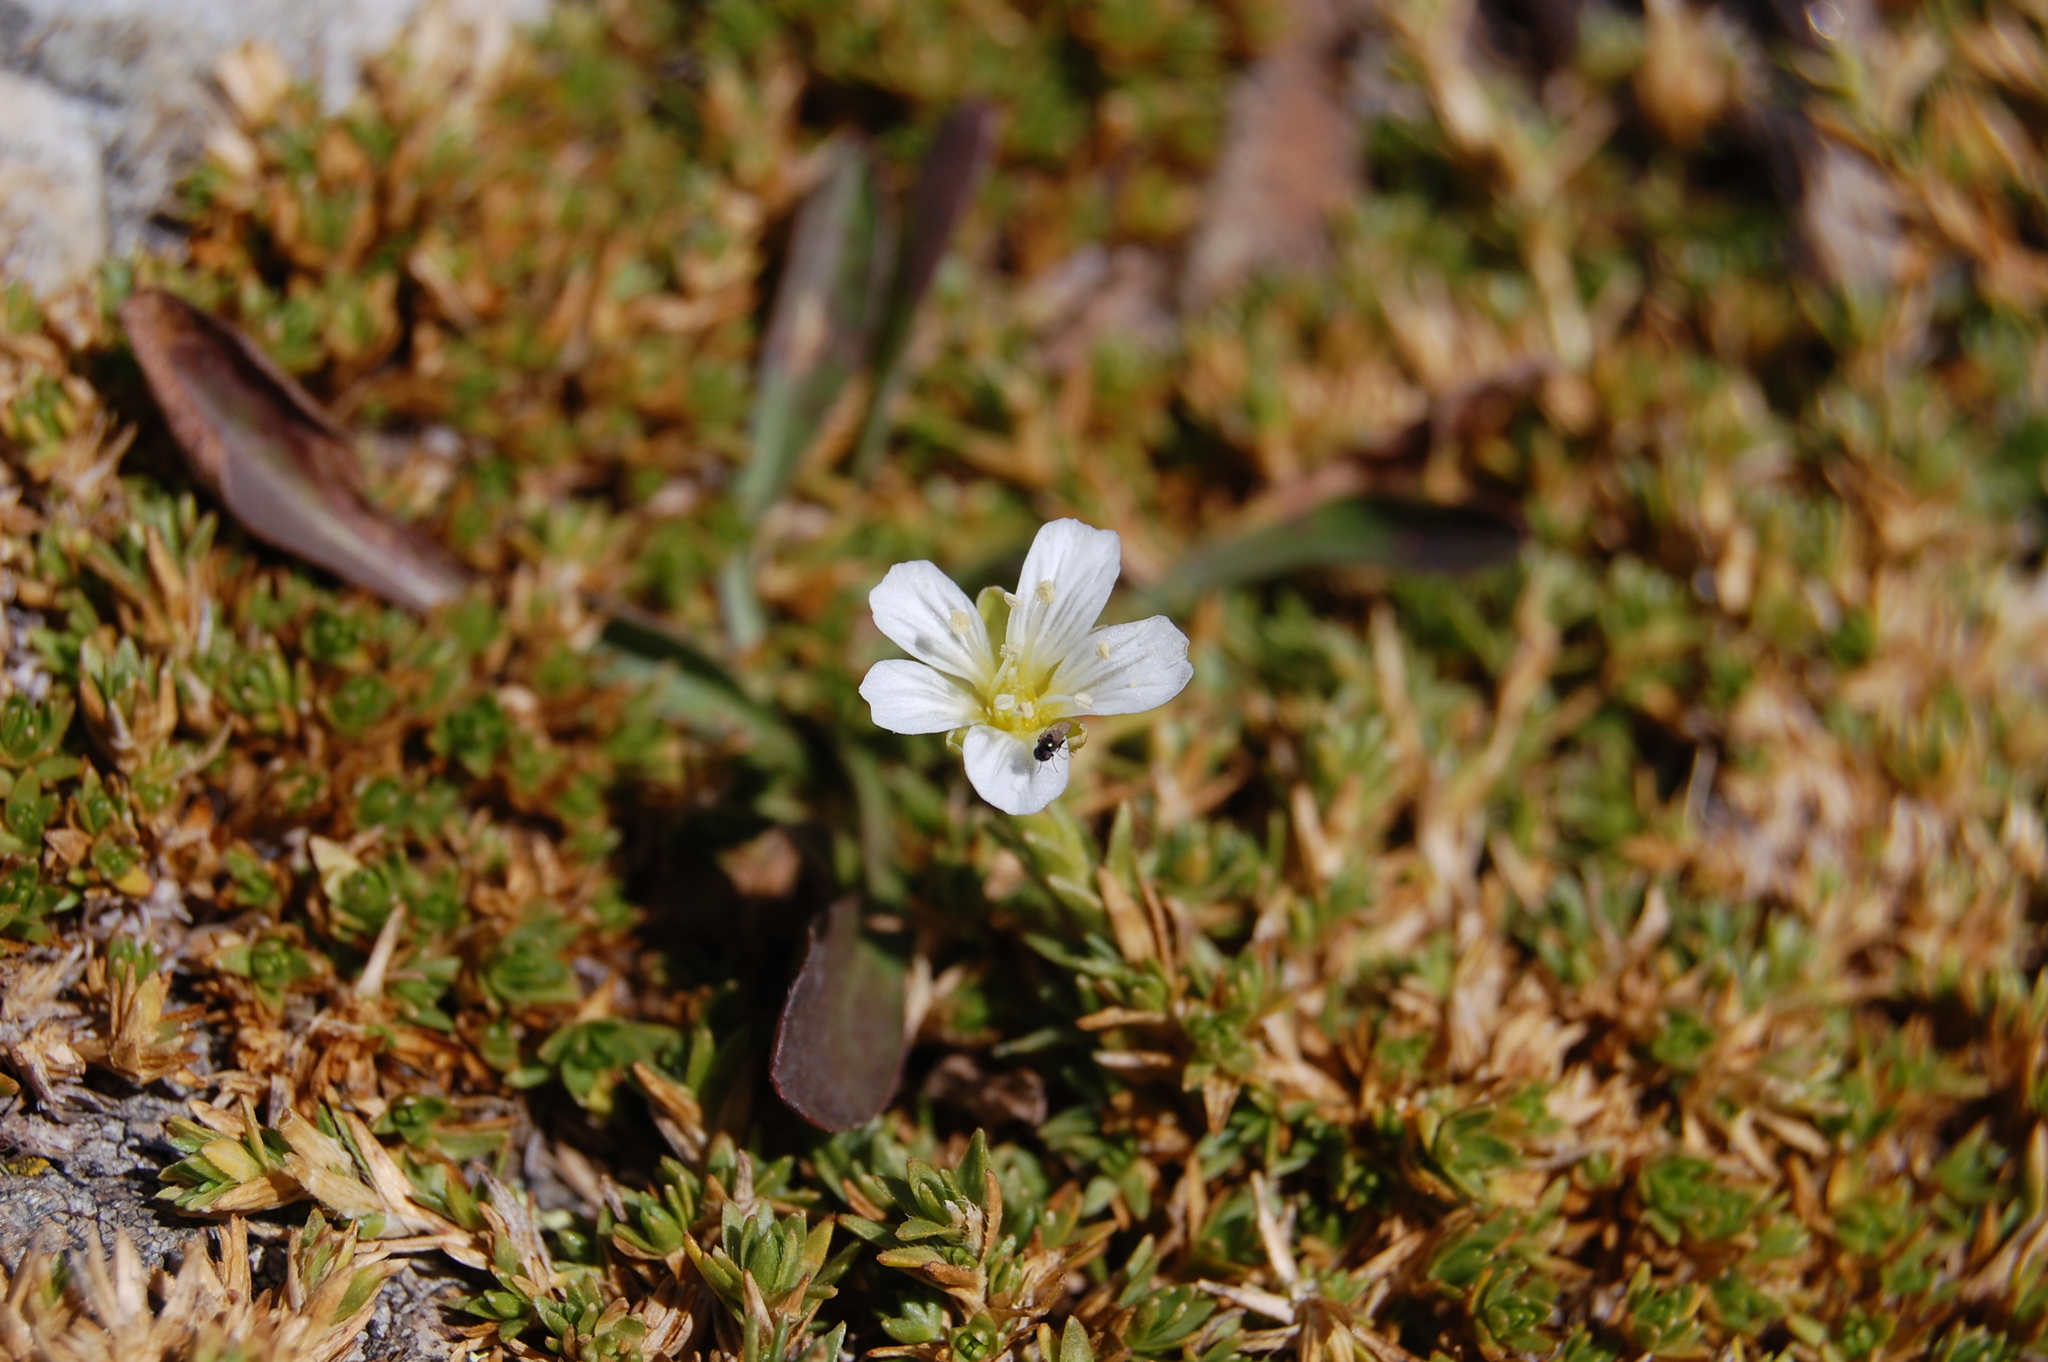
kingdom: Plantae
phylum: Tracheophyta
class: Magnoliopsida
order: Caryophyllales
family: Caryophyllaceae
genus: Pseudocherleria
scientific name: Pseudocherleria imbricata
